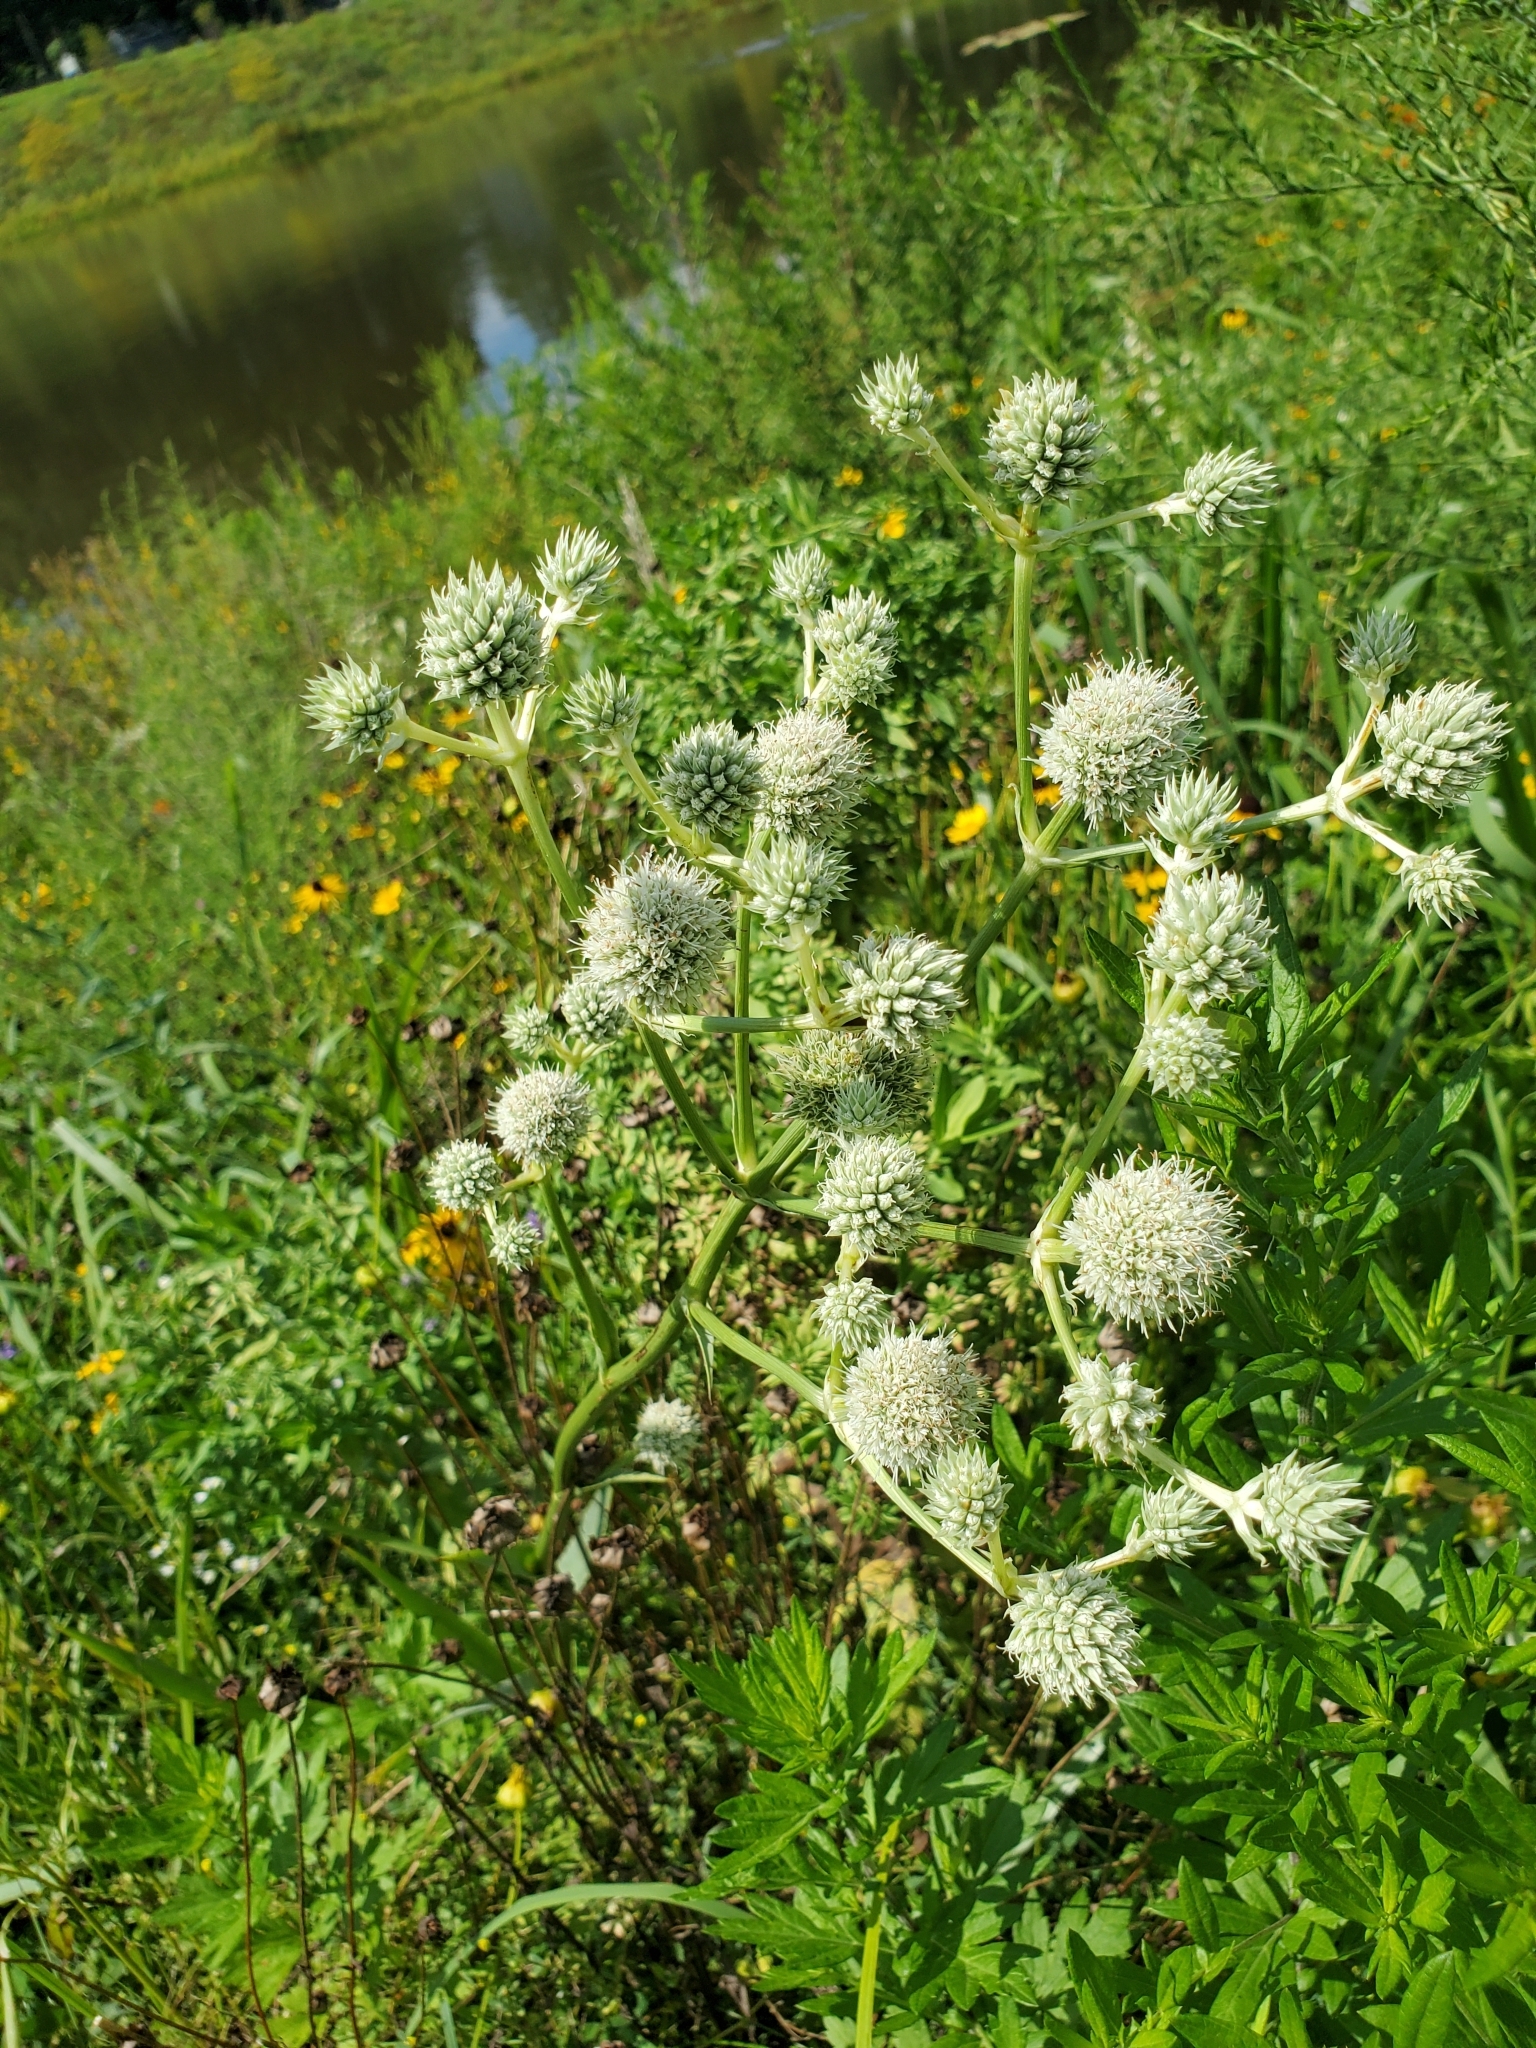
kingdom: Plantae
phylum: Tracheophyta
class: Magnoliopsida
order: Apiales
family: Apiaceae
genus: Eryngium
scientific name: Eryngium yuccifolium
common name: Button eryngo
